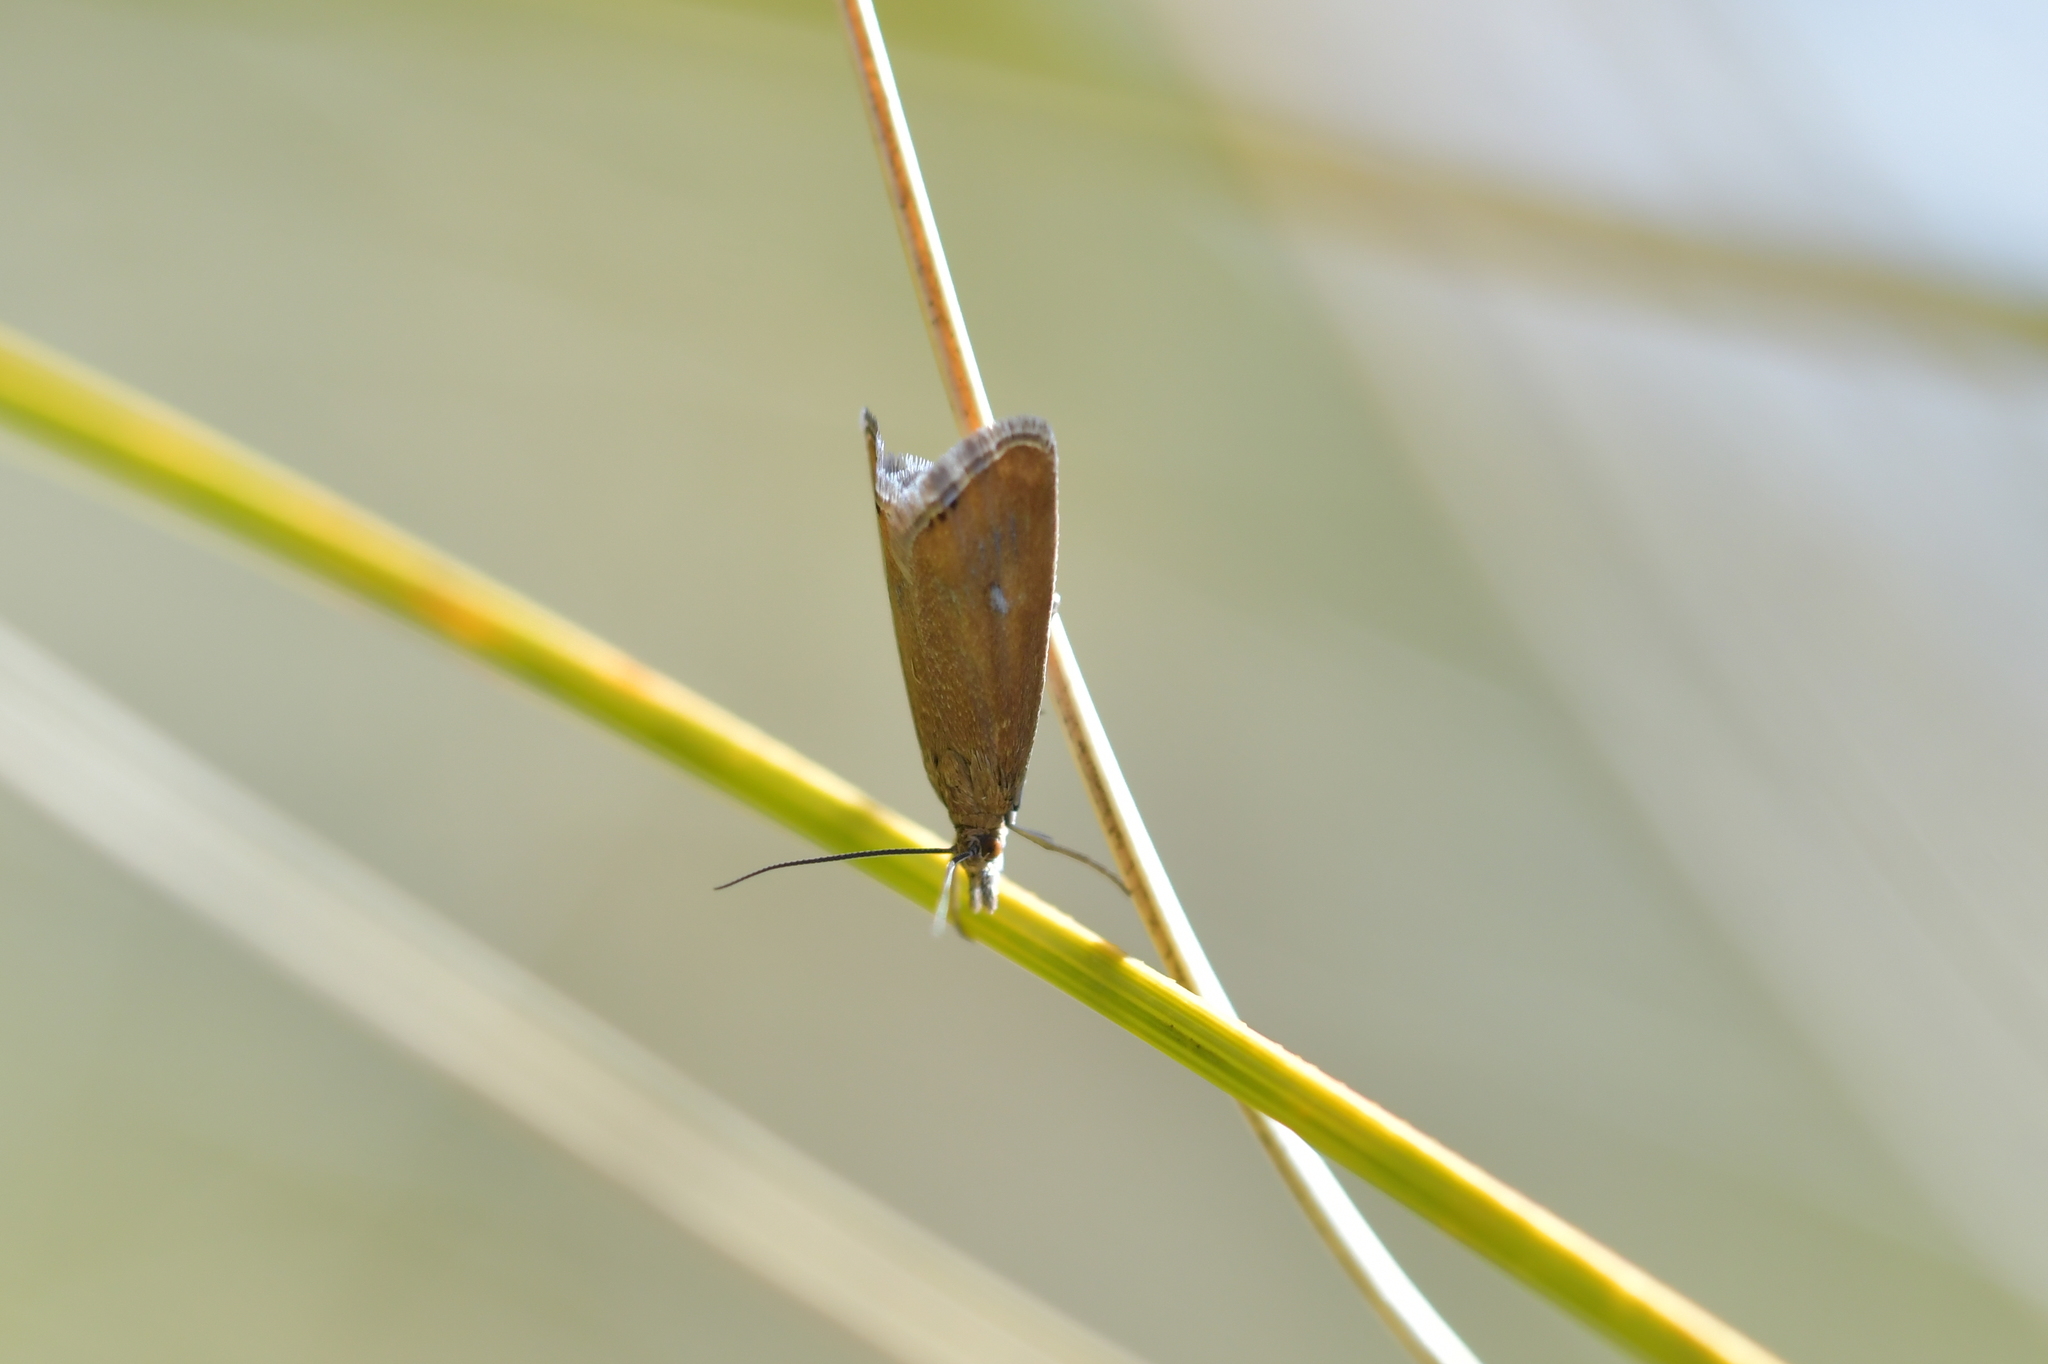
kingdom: Animalia
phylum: Arthropoda
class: Insecta
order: Lepidoptera
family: Crambidae
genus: Glaucocharis
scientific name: Glaucocharis helioctypa
